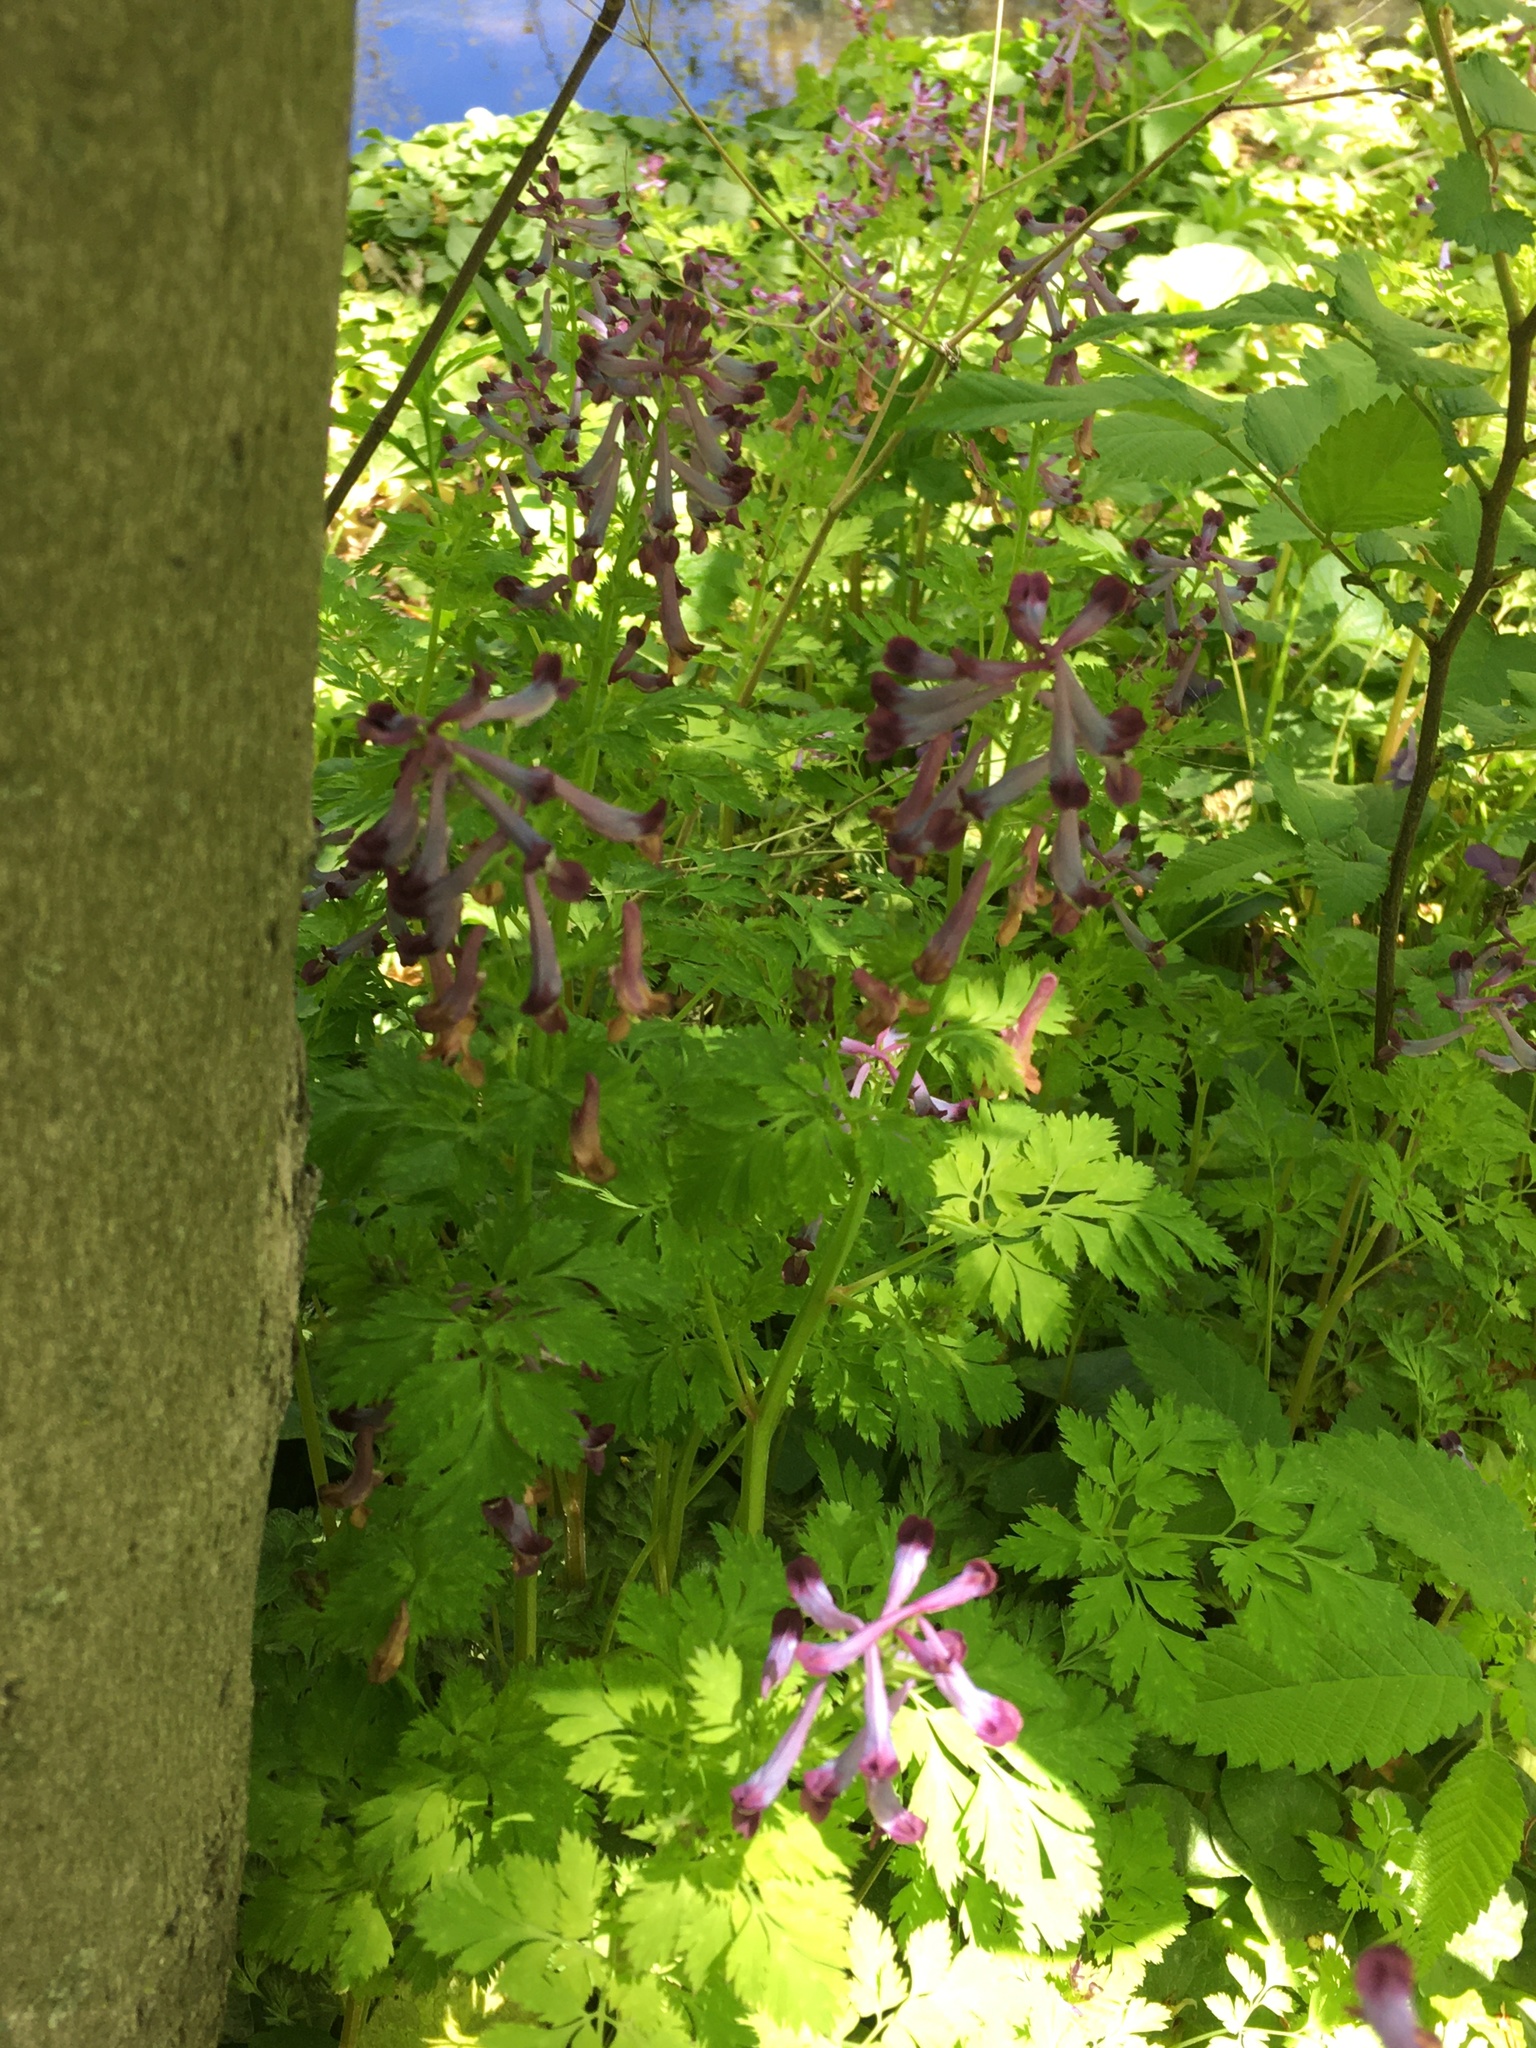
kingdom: Plantae
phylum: Tracheophyta
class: Magnoliopsida
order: Ranunculales
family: Papaveraceae
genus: Corydalis
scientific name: Corydalis incisa
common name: Incised fumewort
